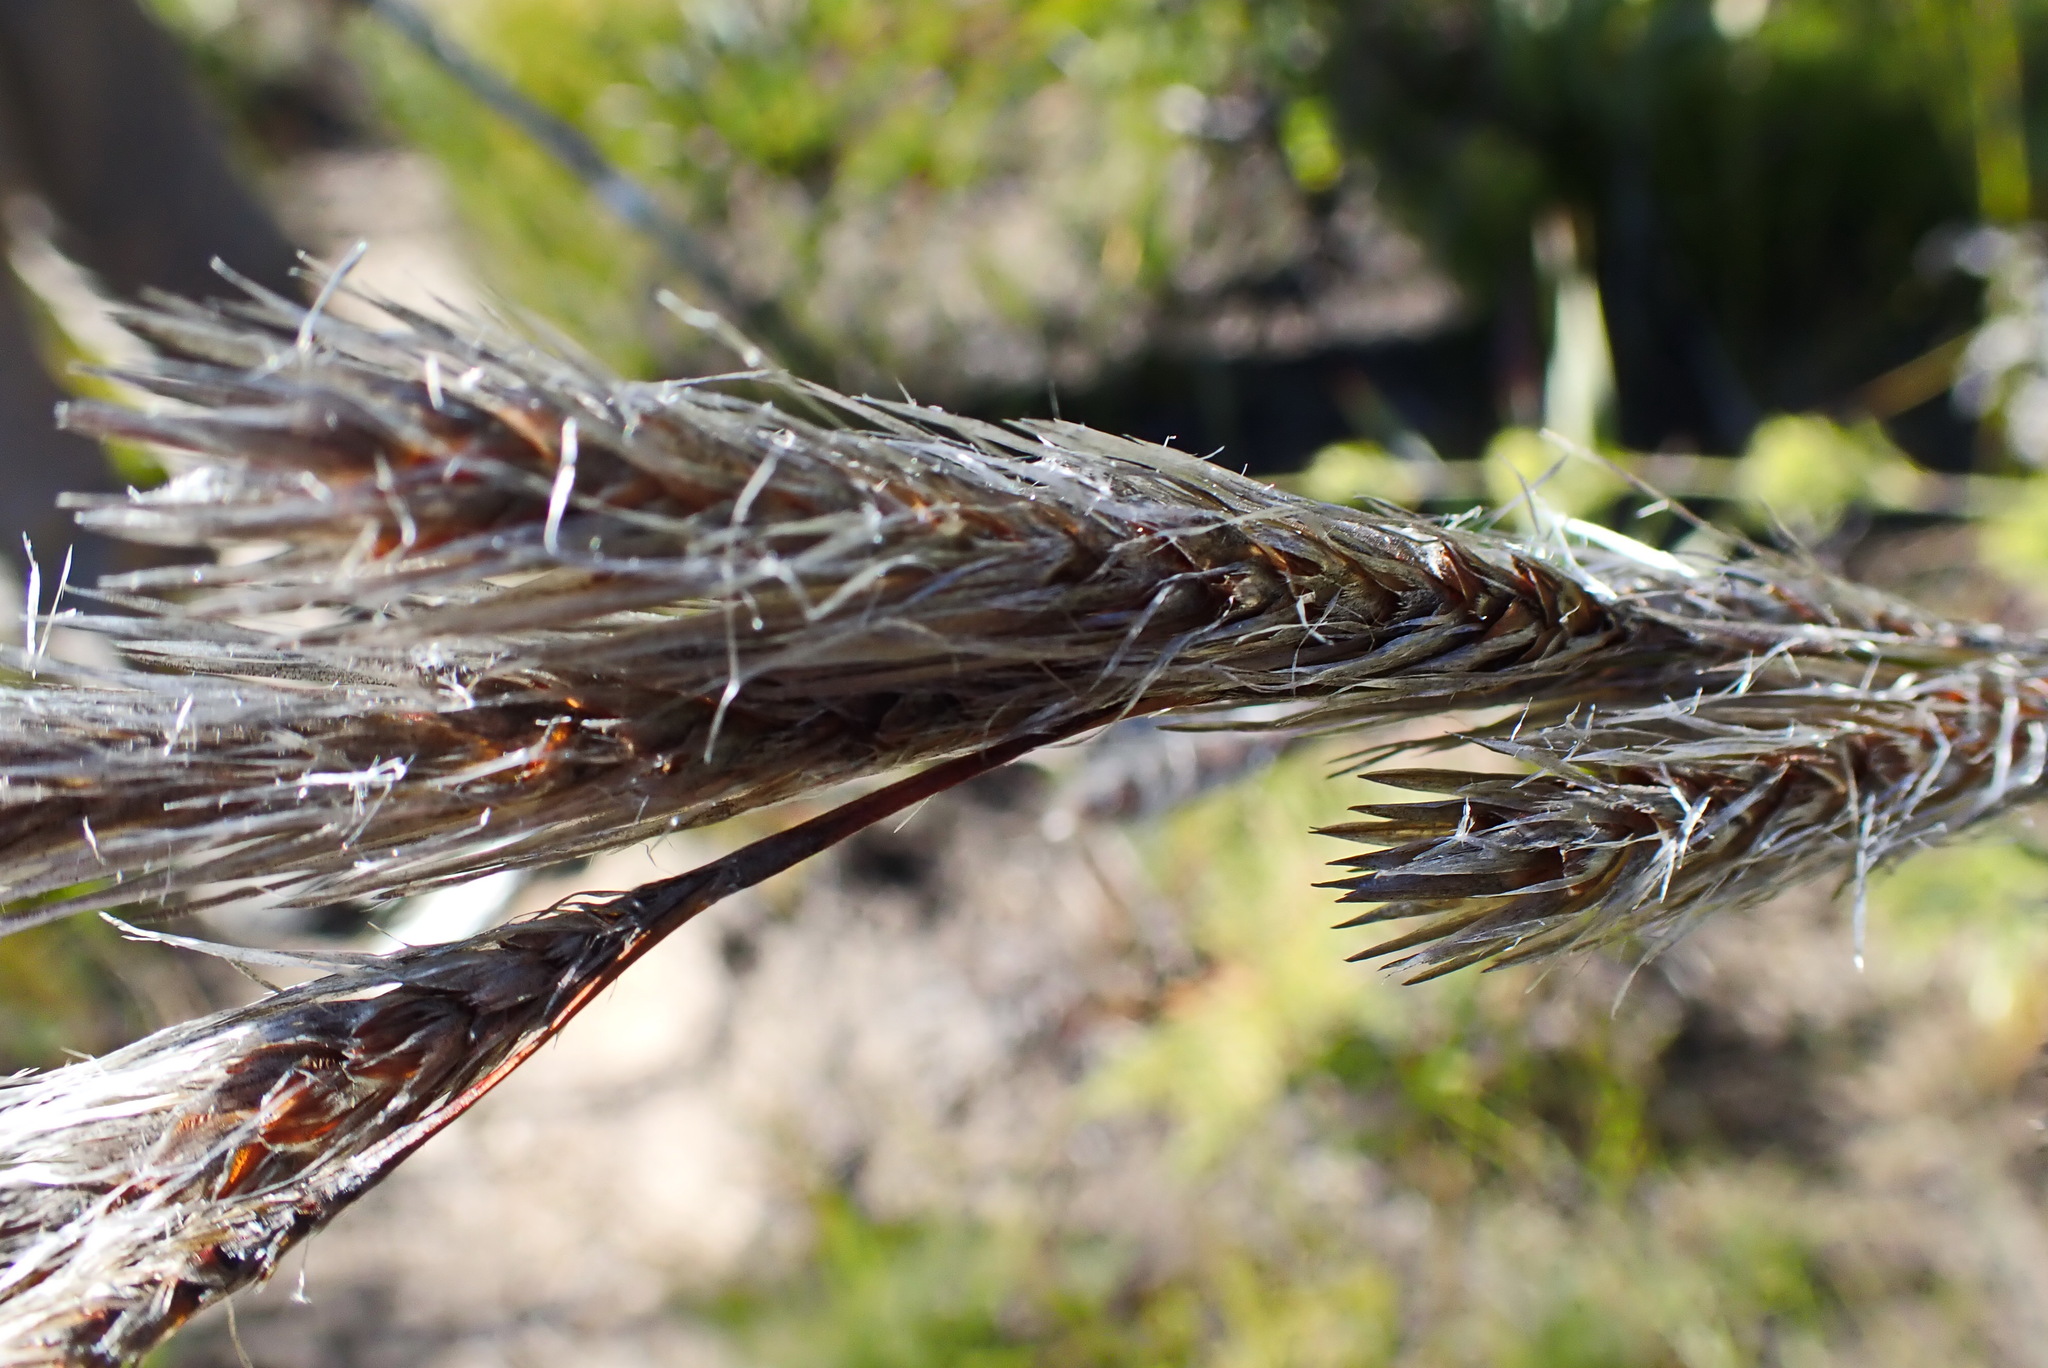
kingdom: Plantae
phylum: Tracheophyta
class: Liliopsida
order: Poales
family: Restionaceae
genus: Thamnochortus
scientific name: Thamnochortus cinereus
